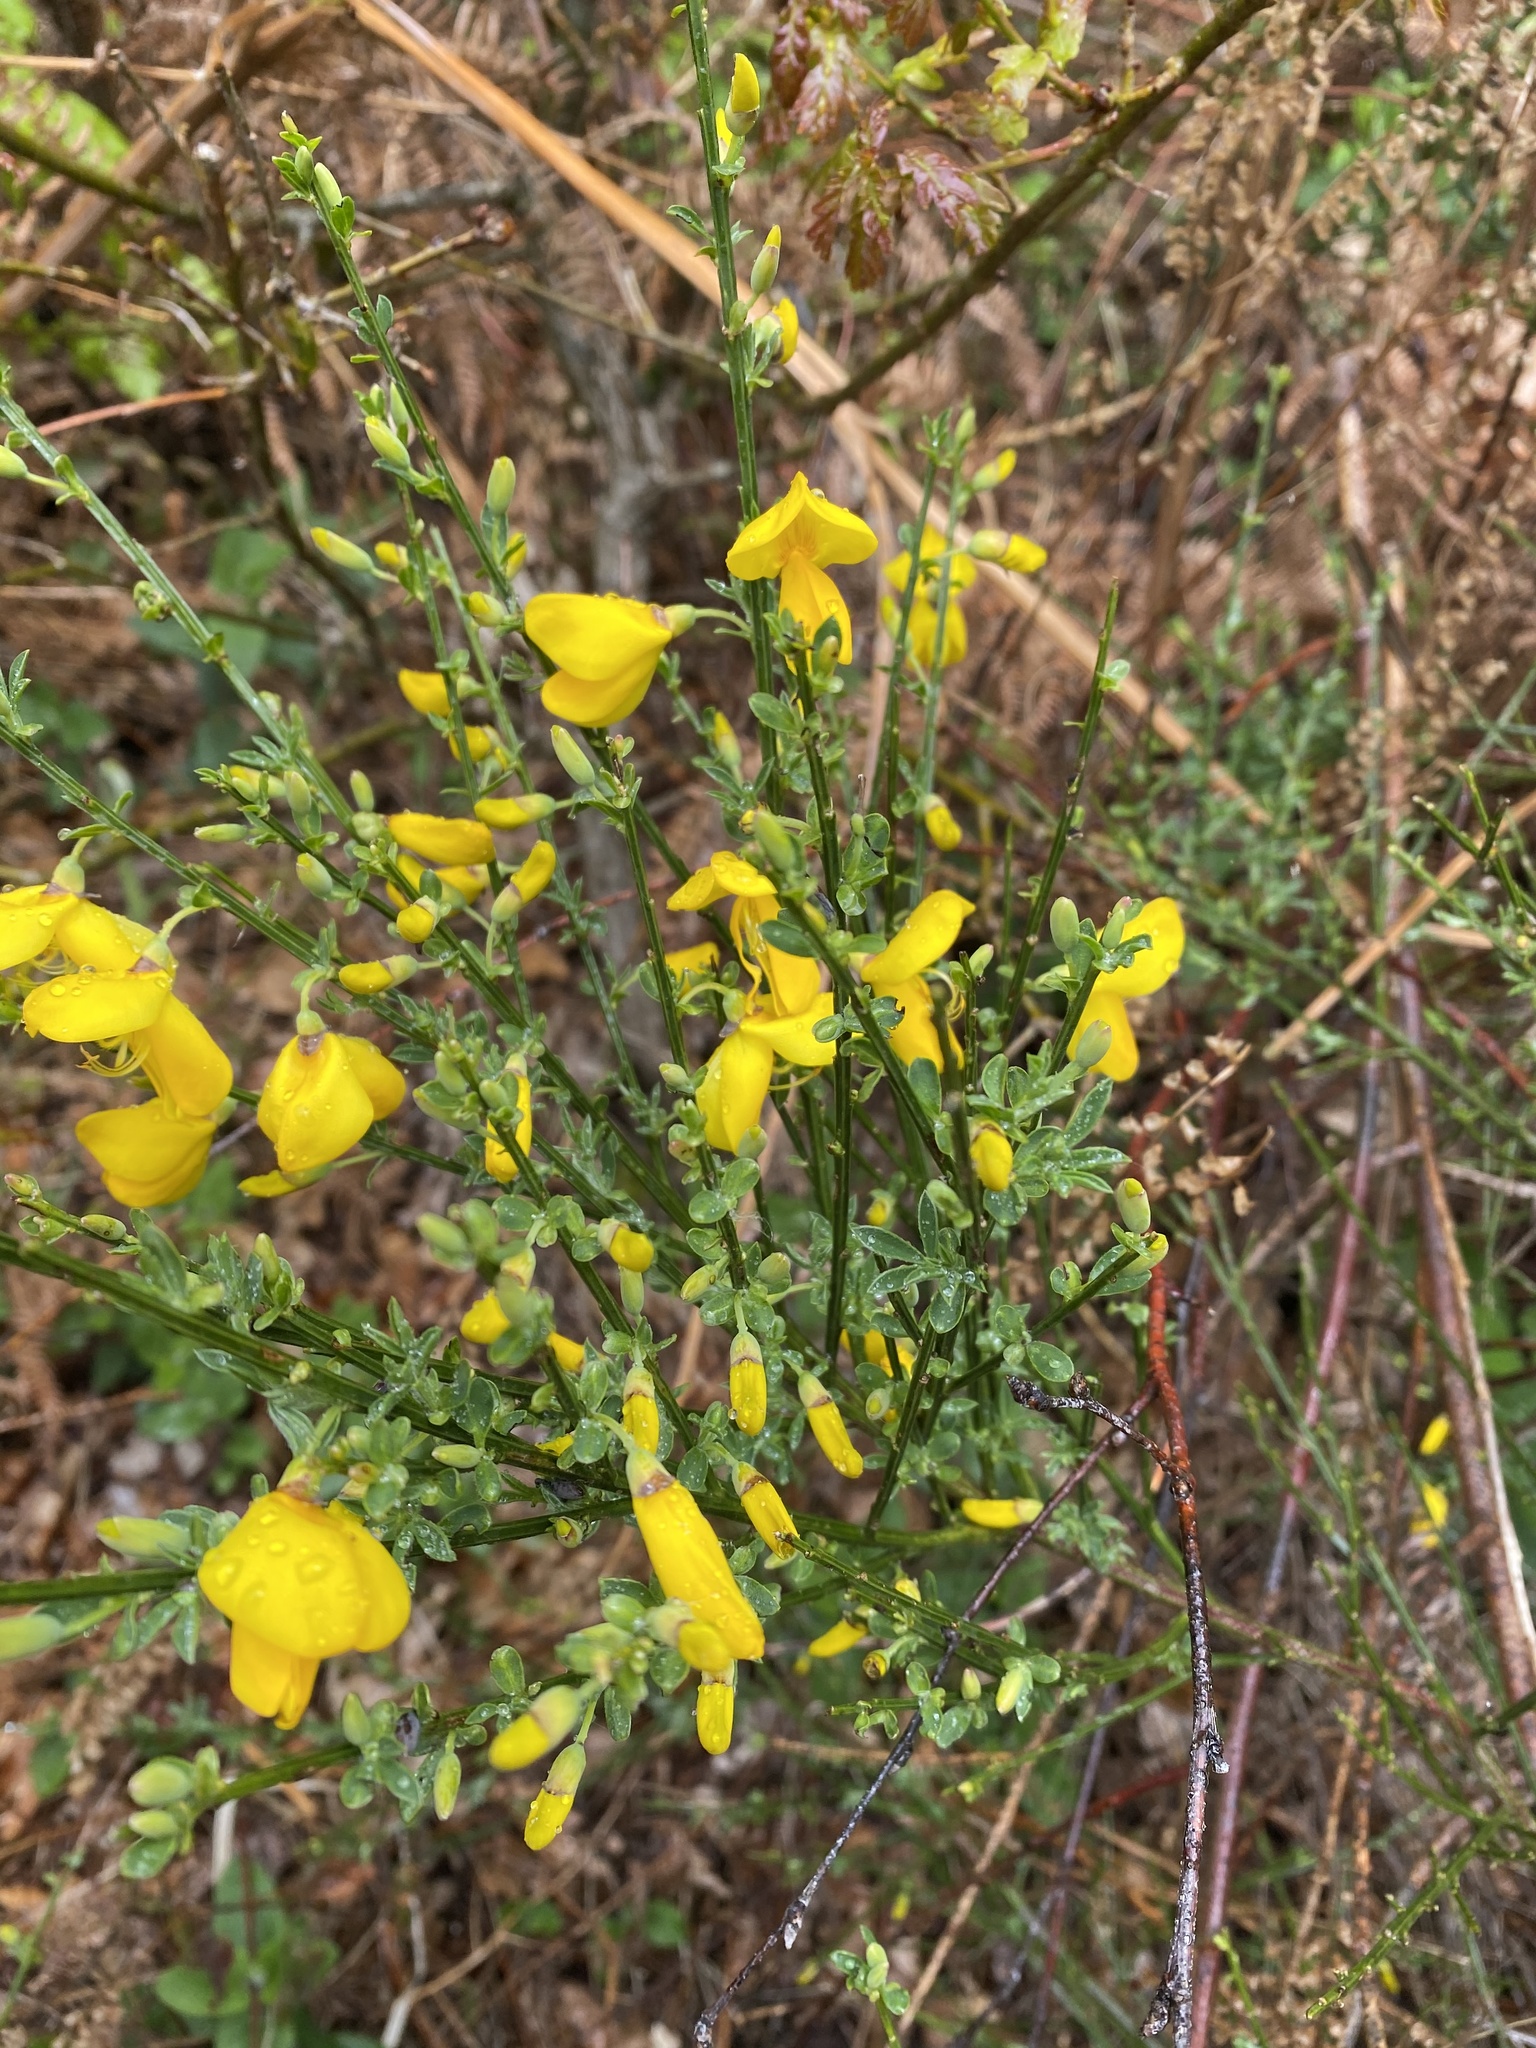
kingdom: Plantae
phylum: Tracheophyta
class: Magnoliopsida
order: Fabales
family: Fabaceae
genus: Cytisus
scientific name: Cytisus scoparius
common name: Scotch broom
